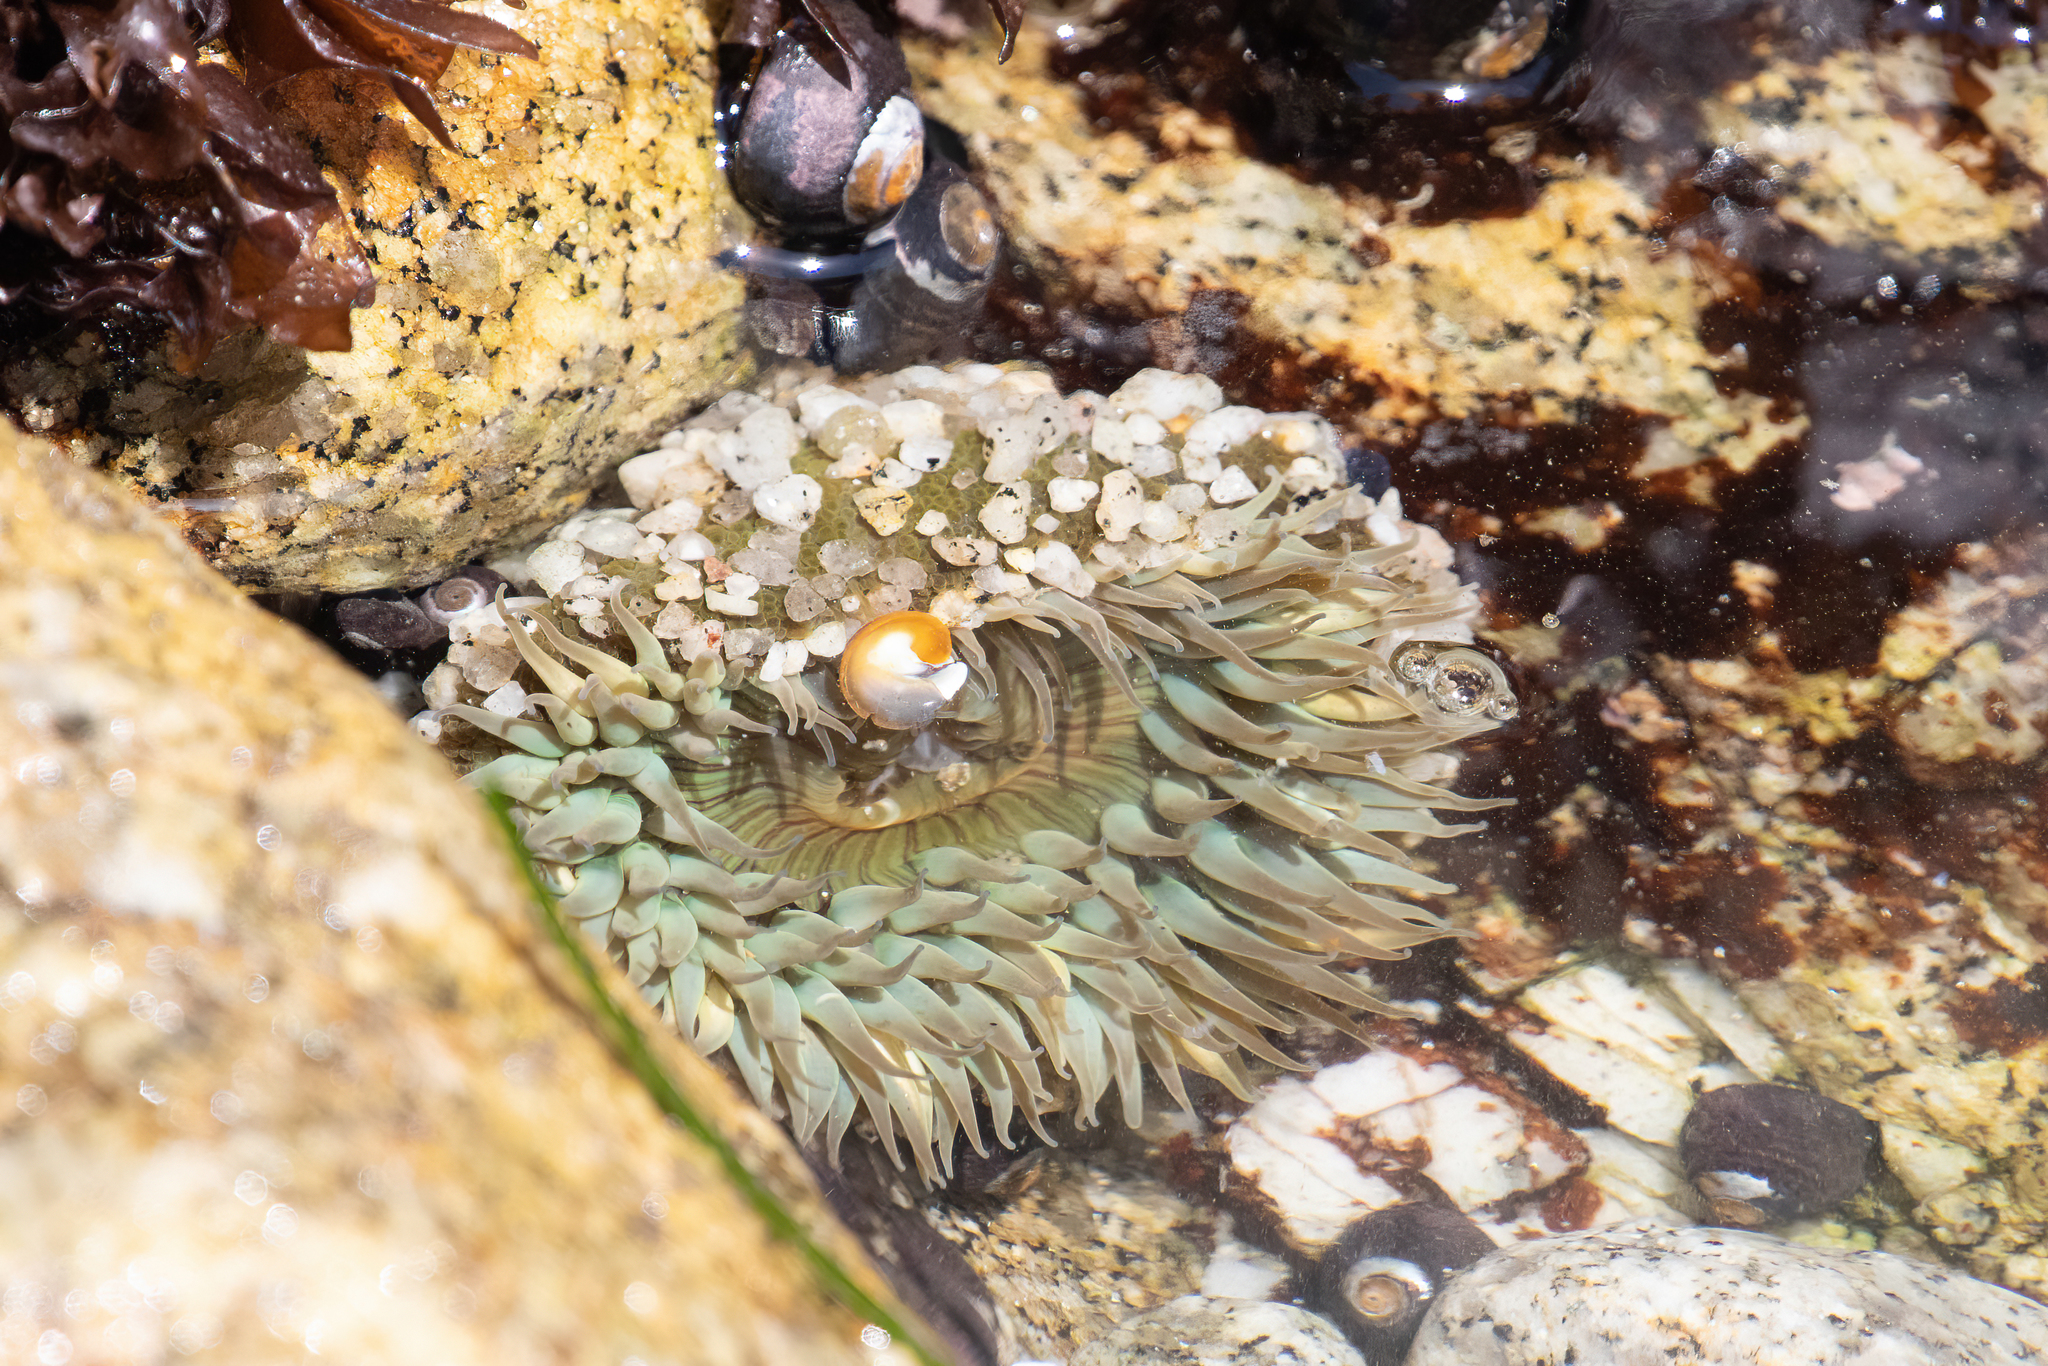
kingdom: Animalia
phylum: Cnidaria
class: Anthozoa
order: Actiniaria
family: Actiniidae
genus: Anthopleura
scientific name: Anthopleura sola
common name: Sun anemone
